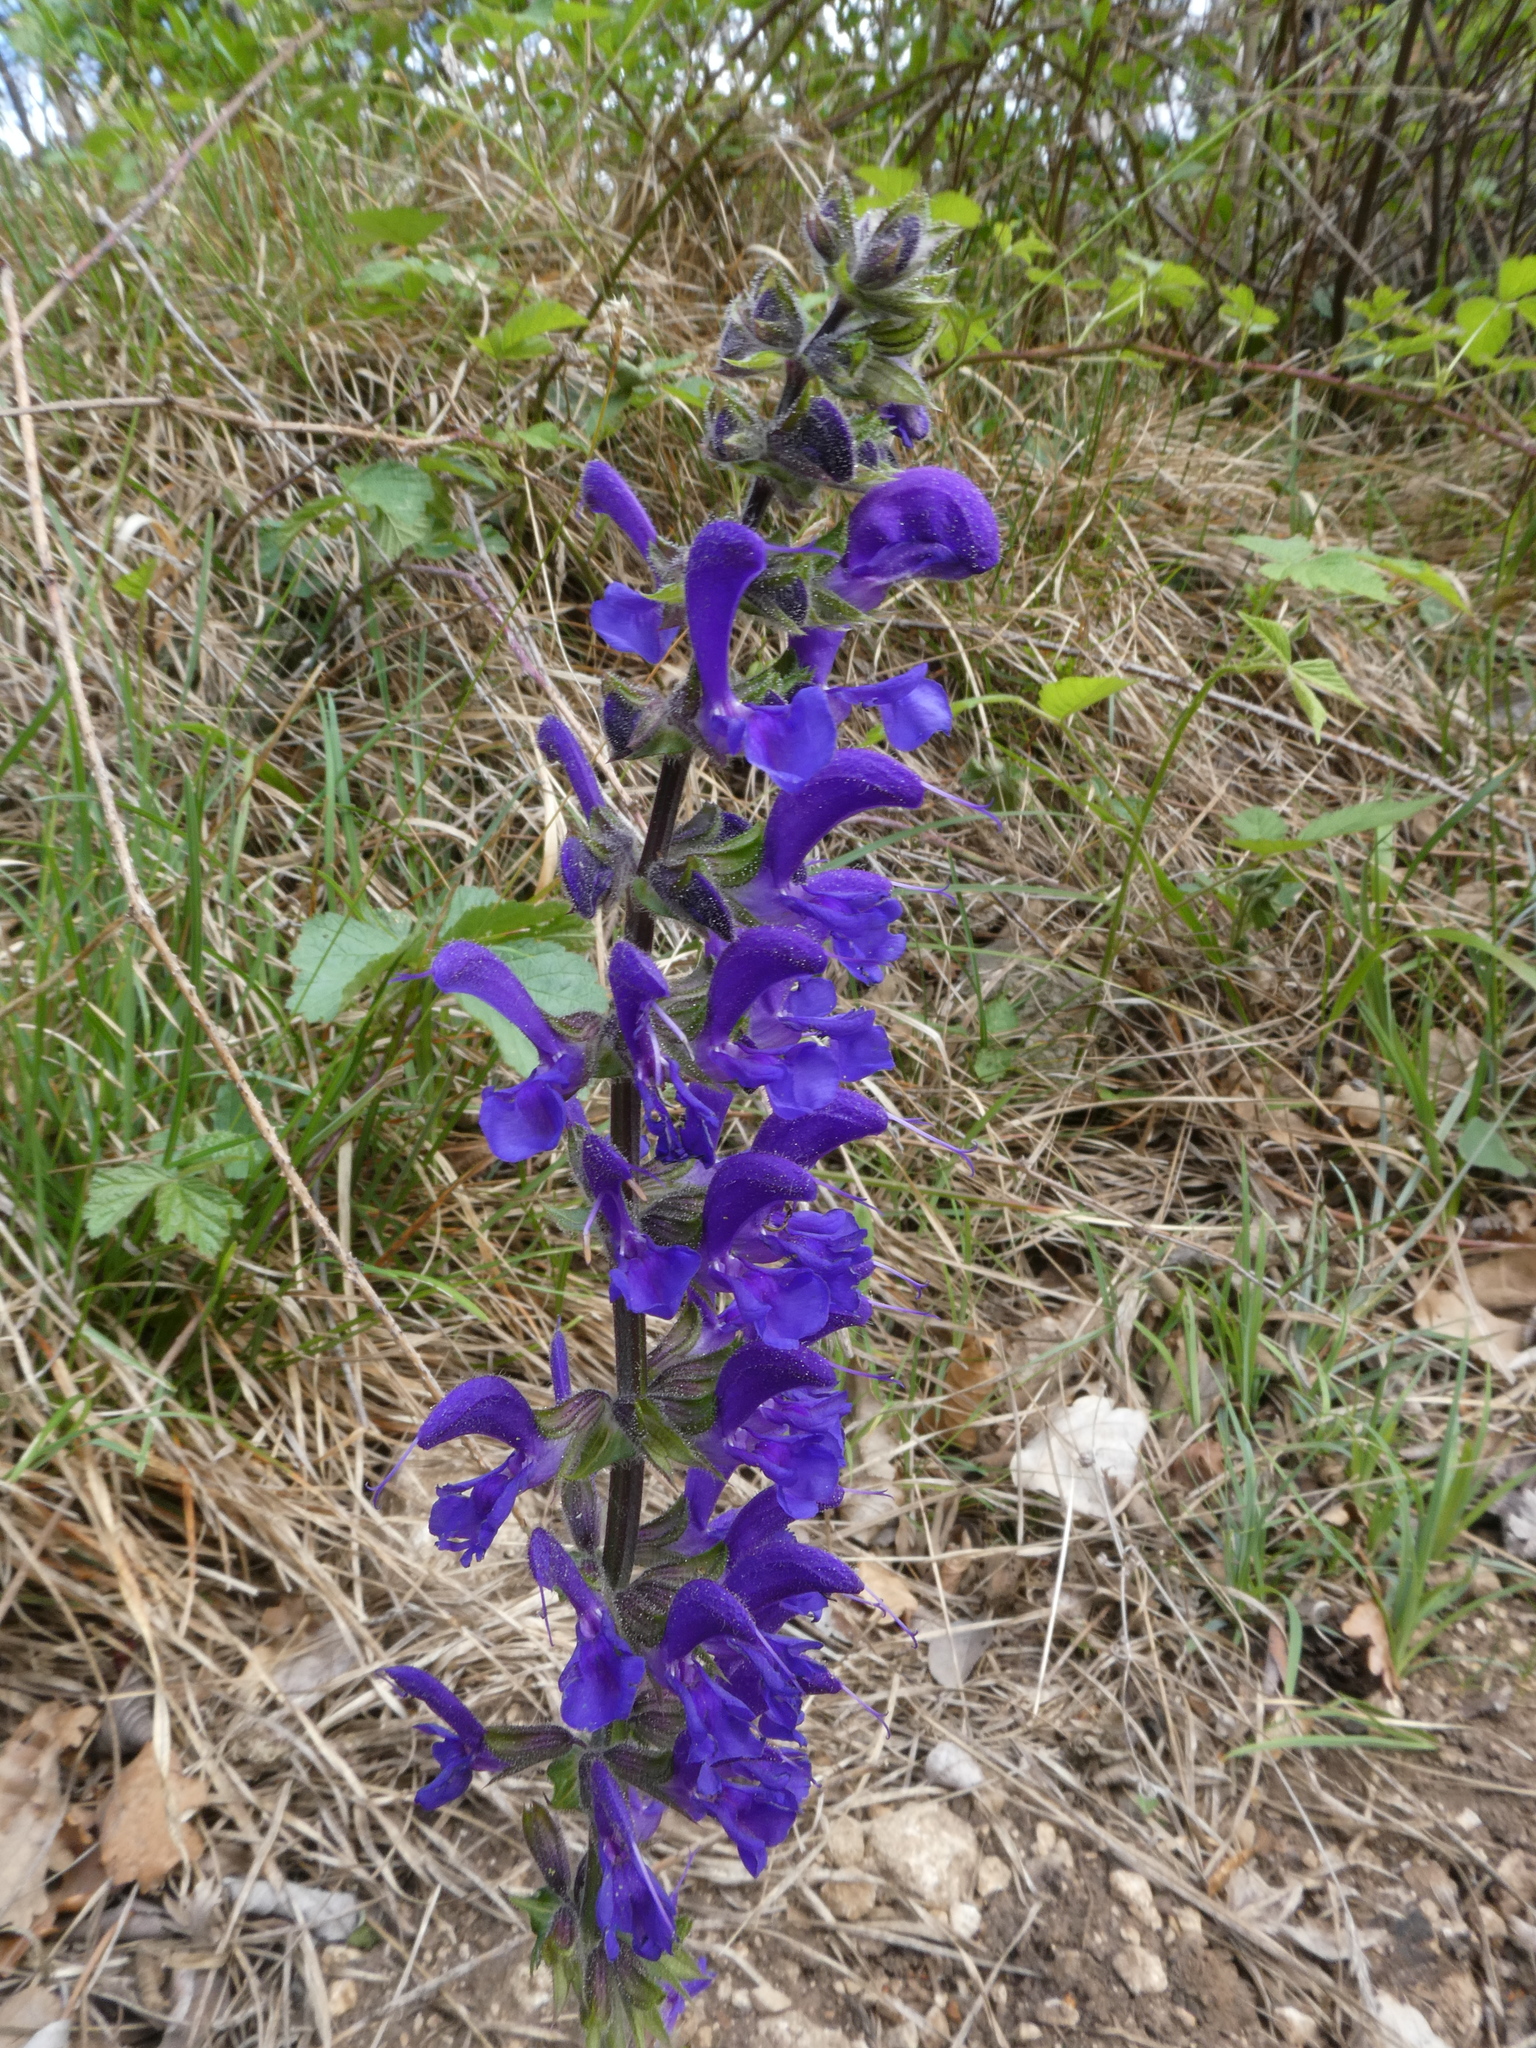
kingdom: Plantae
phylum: Tracheophyta
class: Magnoliopsida
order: Lamiales
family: Lamiaceae
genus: Salvia
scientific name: Salvia pratensis
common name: Meadow sage
